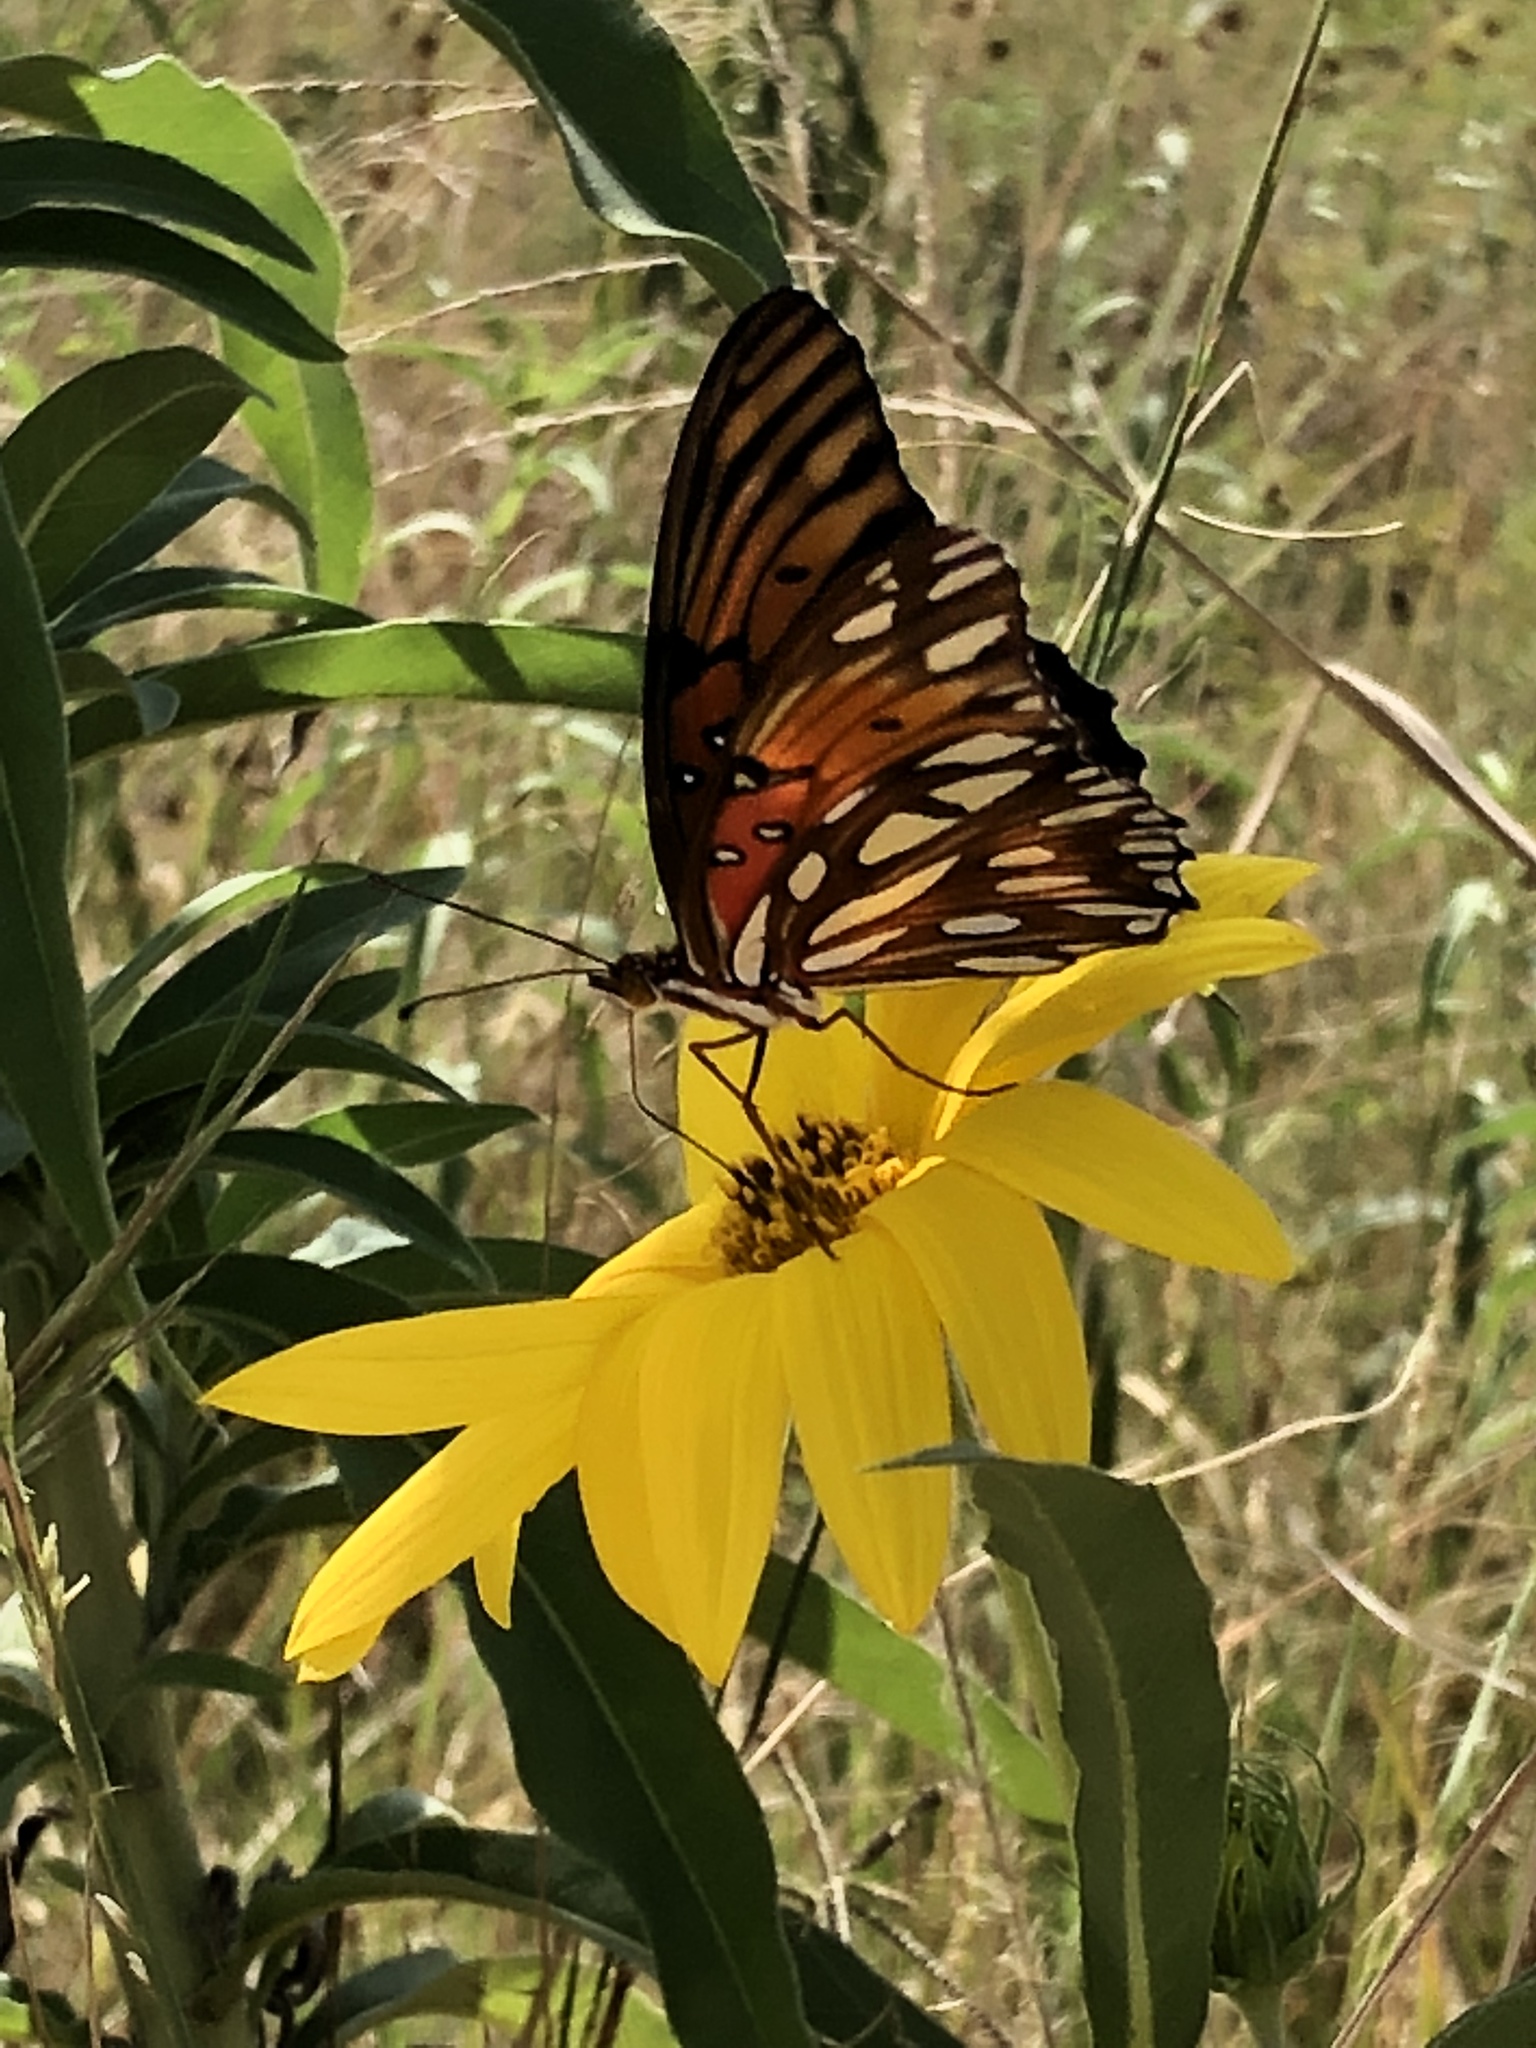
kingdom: Animalia
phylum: Arthropoda
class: Insecta
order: Lepidoptera
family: Nymphalidae
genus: Dione
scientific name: Dione vanillae
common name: Gulf fritillary
